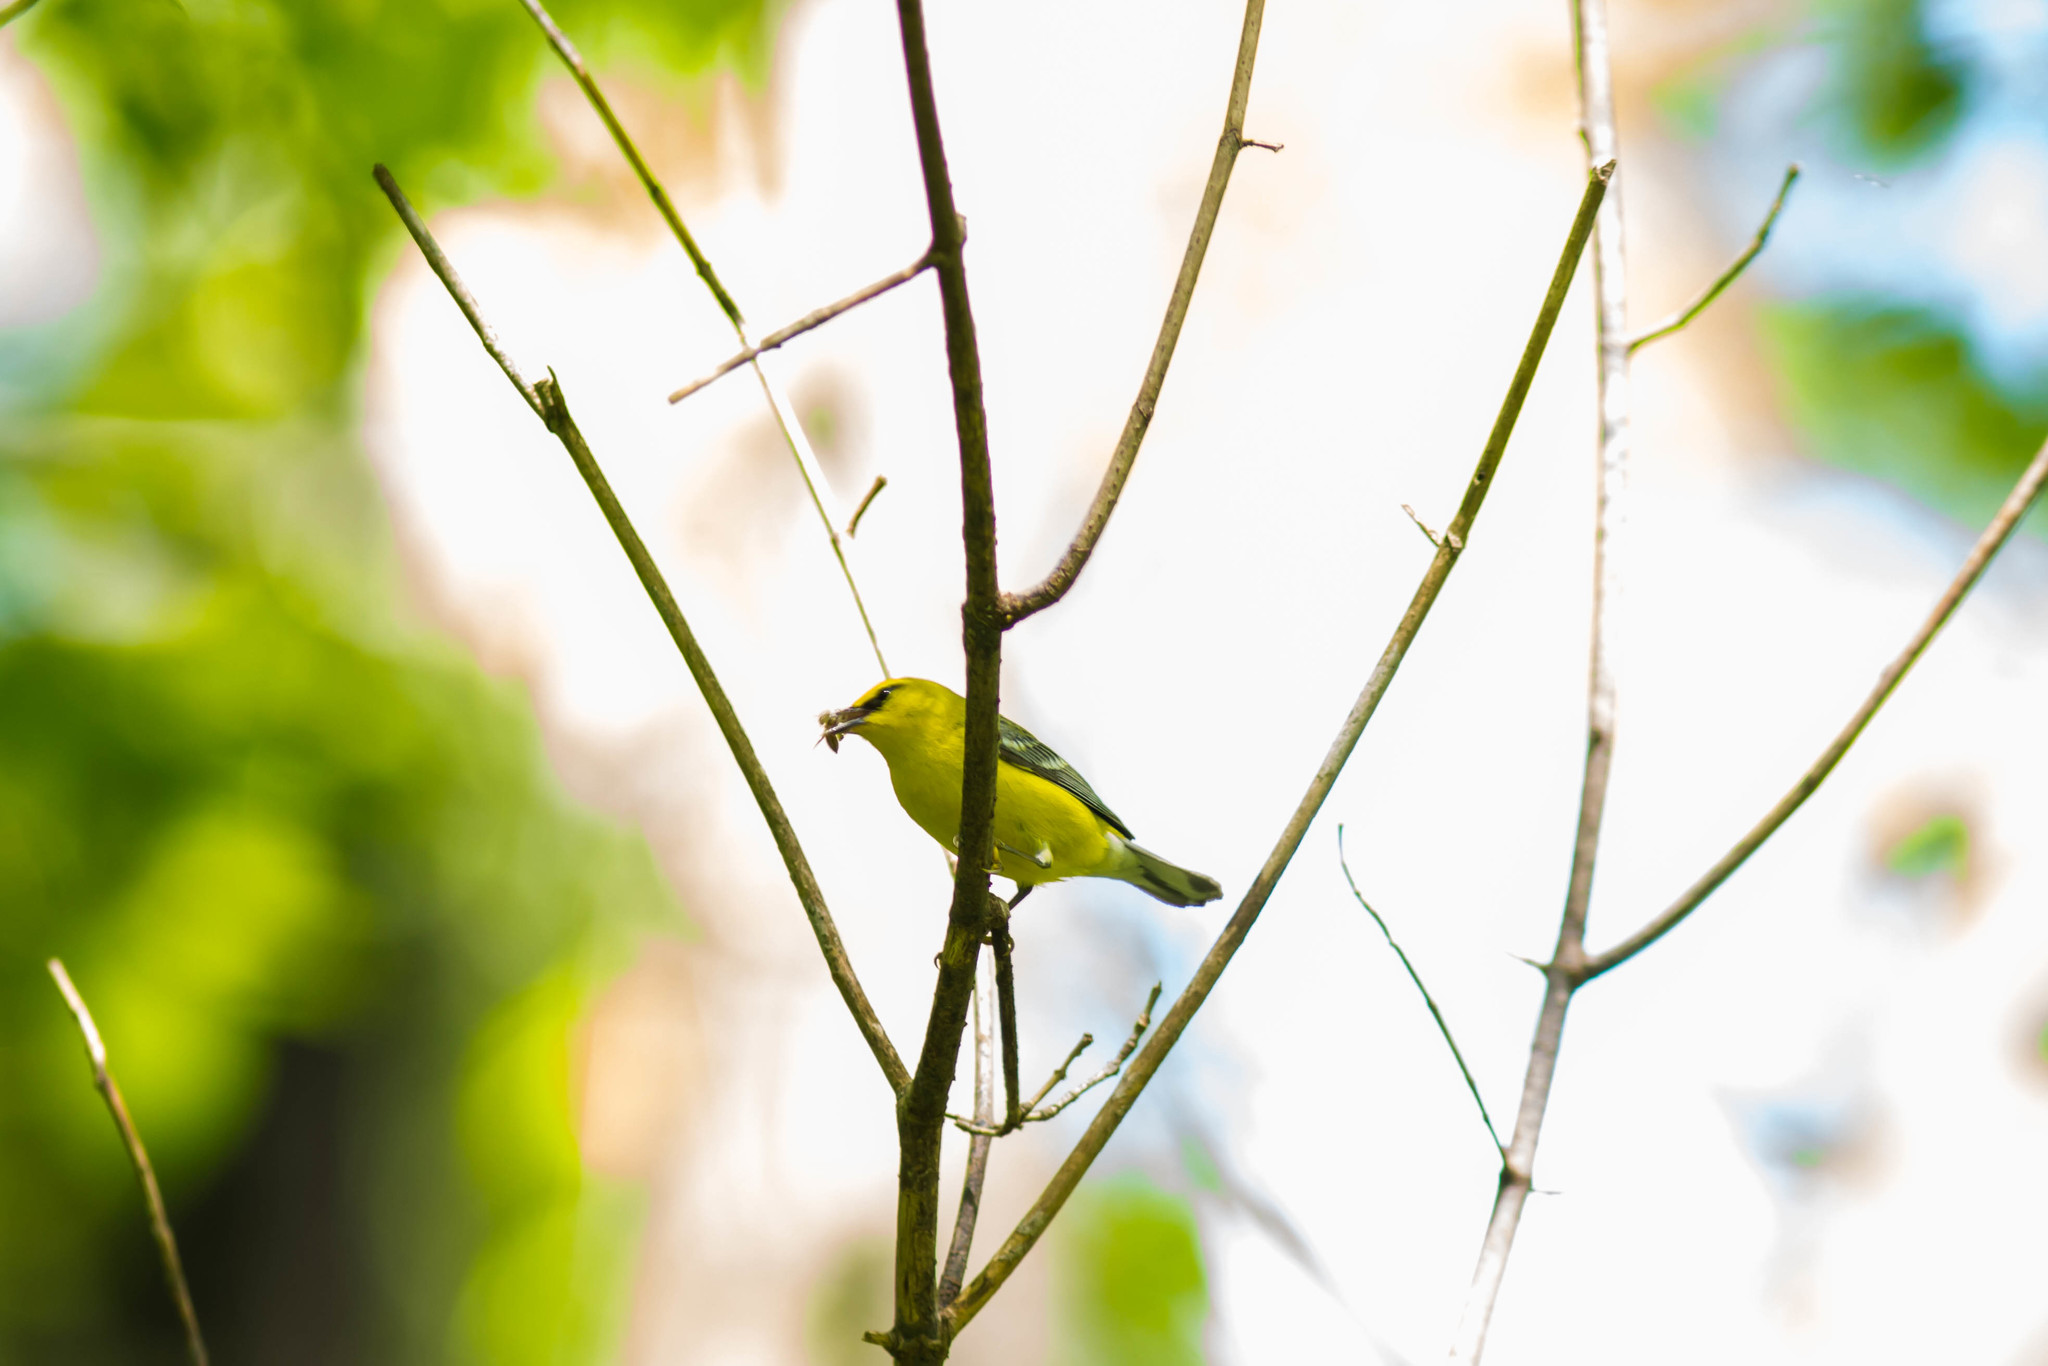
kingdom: Animalia
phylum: Chordata
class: Aves
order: Passeriformes
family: Parulidae
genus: Vermivora
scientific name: Vermivora cyanoptera
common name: Blue-winged warbler
